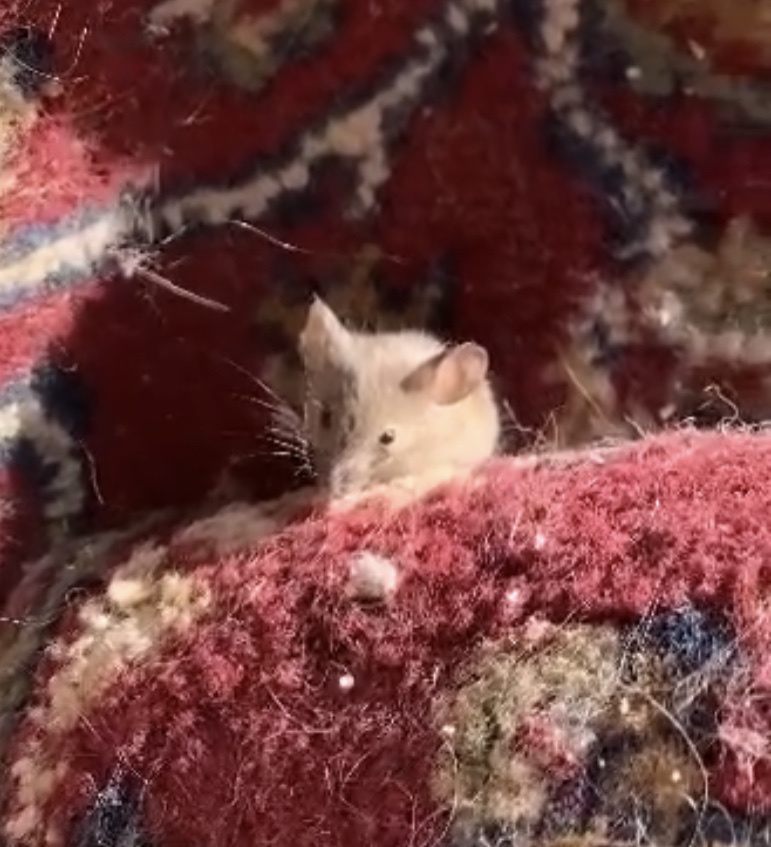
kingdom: Animalia
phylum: Chordata
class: Mammalia
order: Rodentia
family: Muridae
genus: Mus
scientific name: Mus musculus
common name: House mouse
